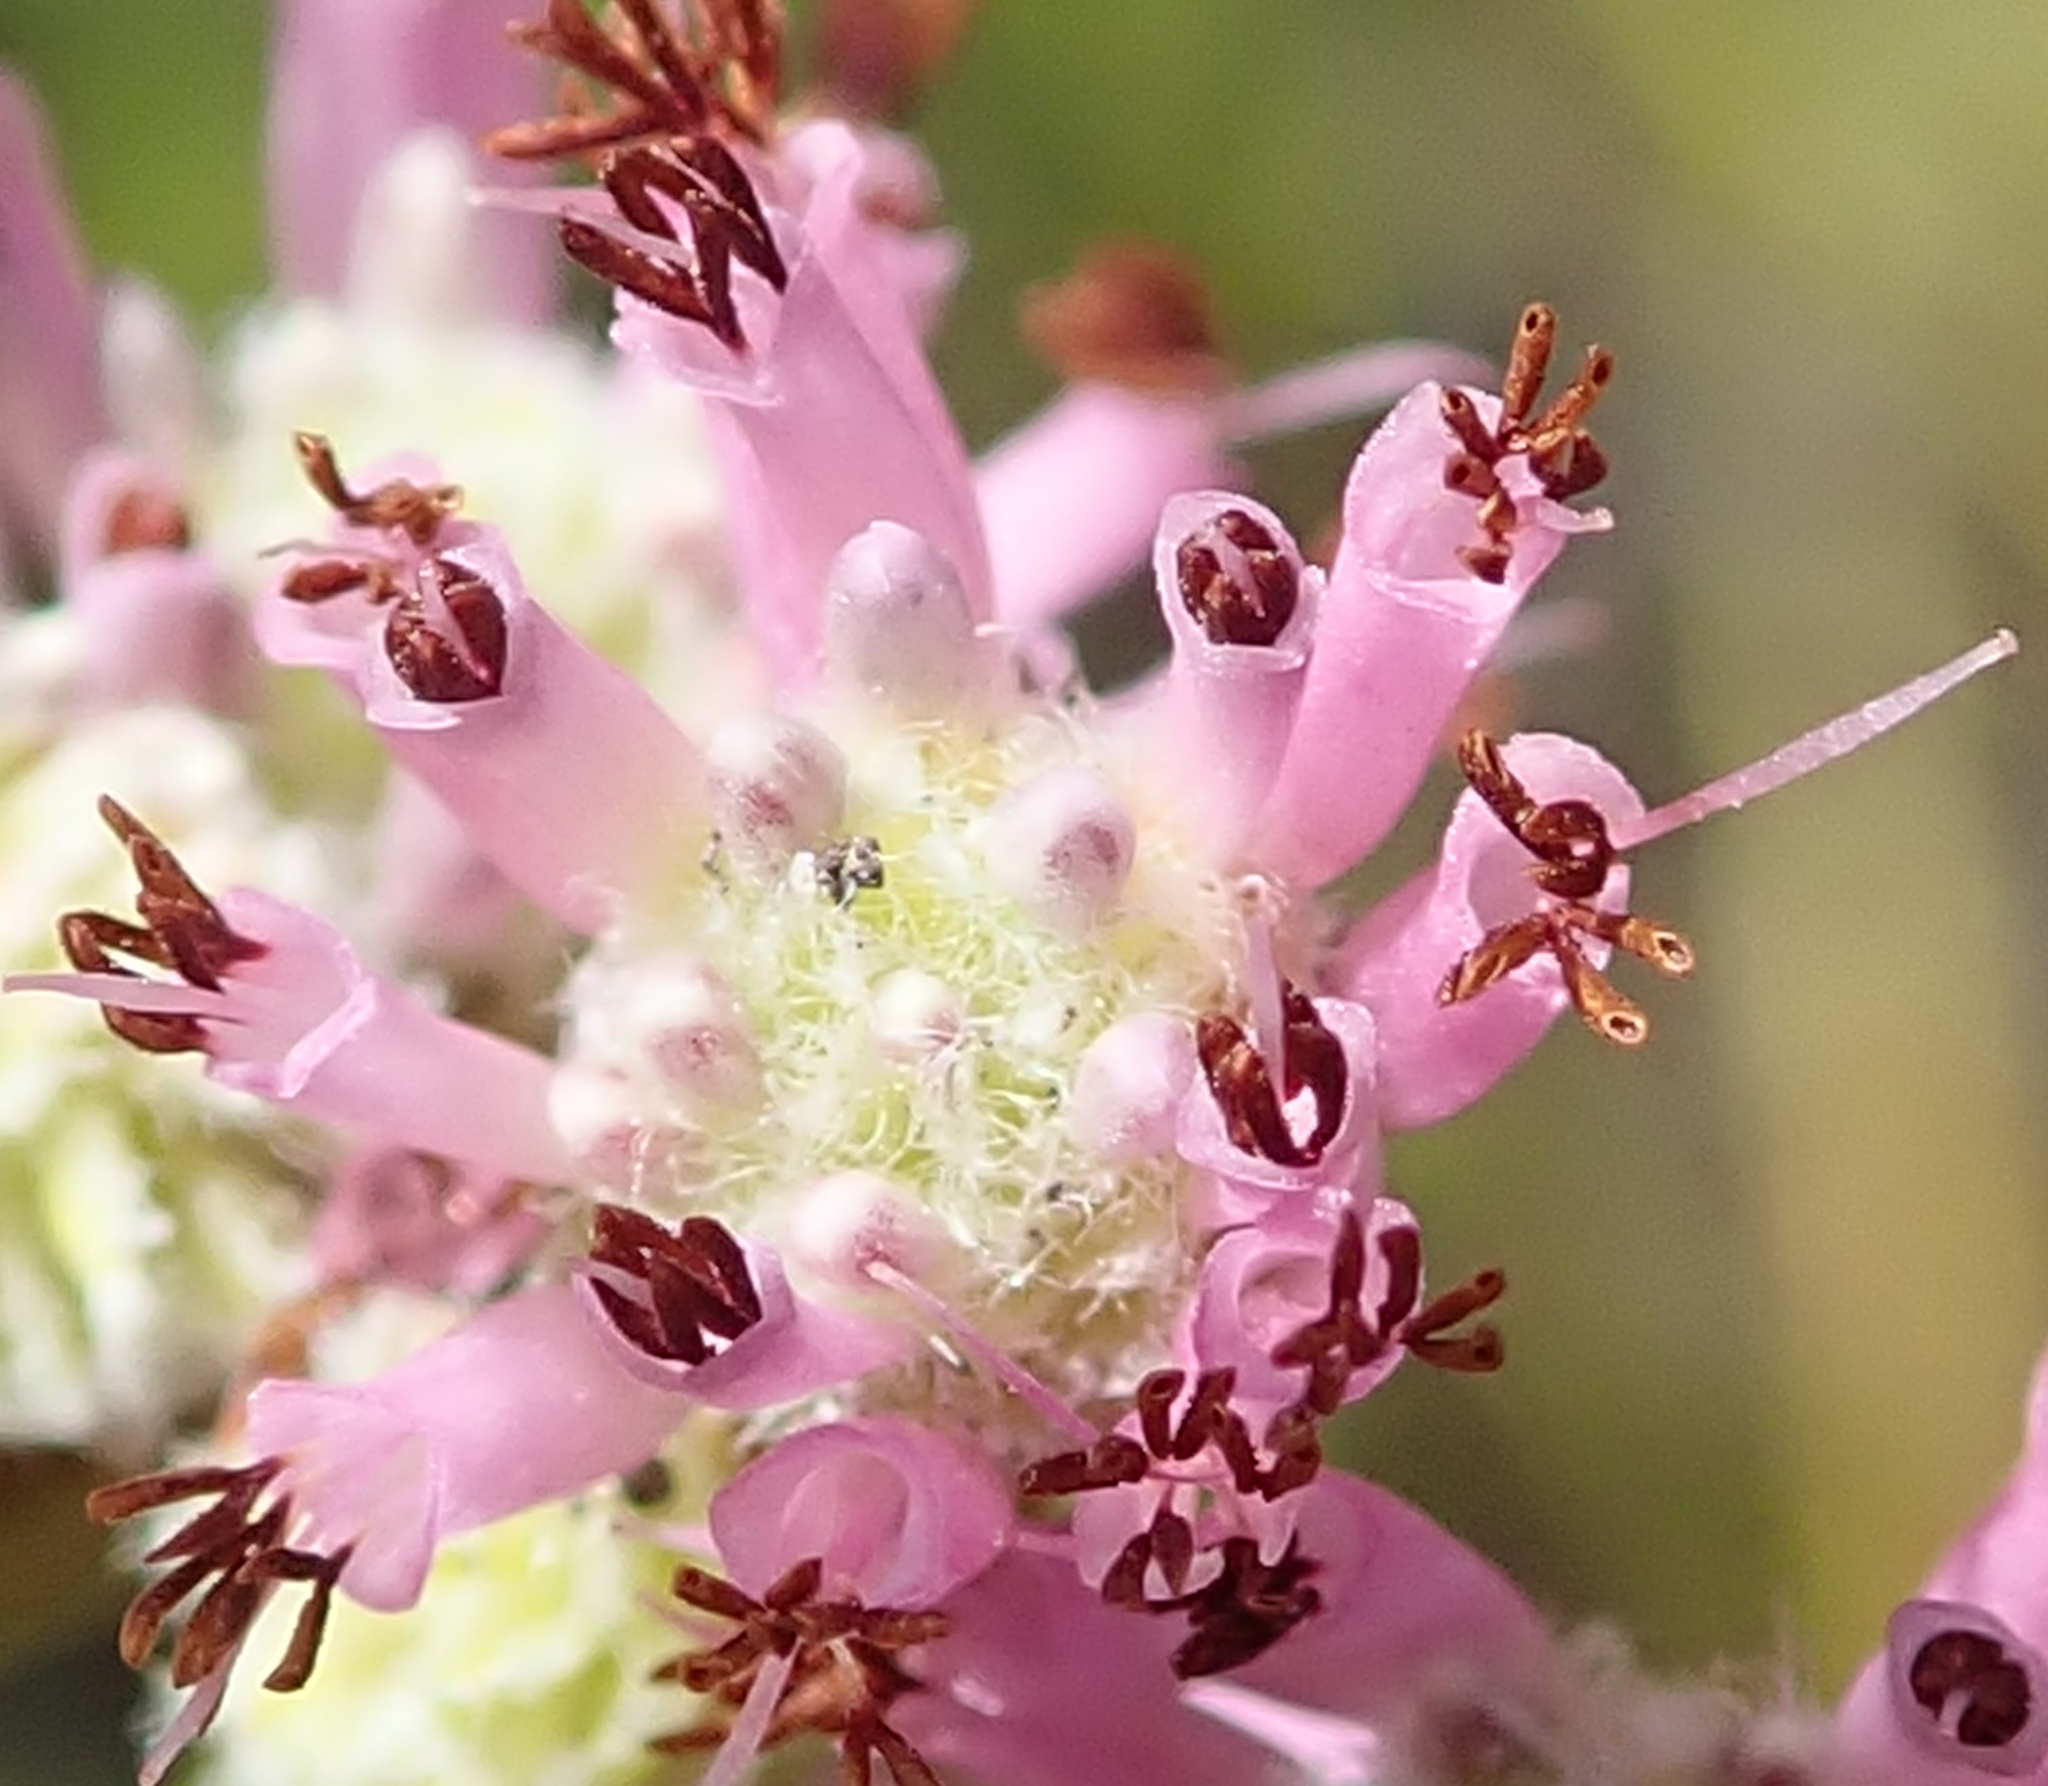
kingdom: Plantae
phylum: Tracheophyta
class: Magnoliopsida
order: Ericales
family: Ericaceae
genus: Erica
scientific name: Erica labialis
